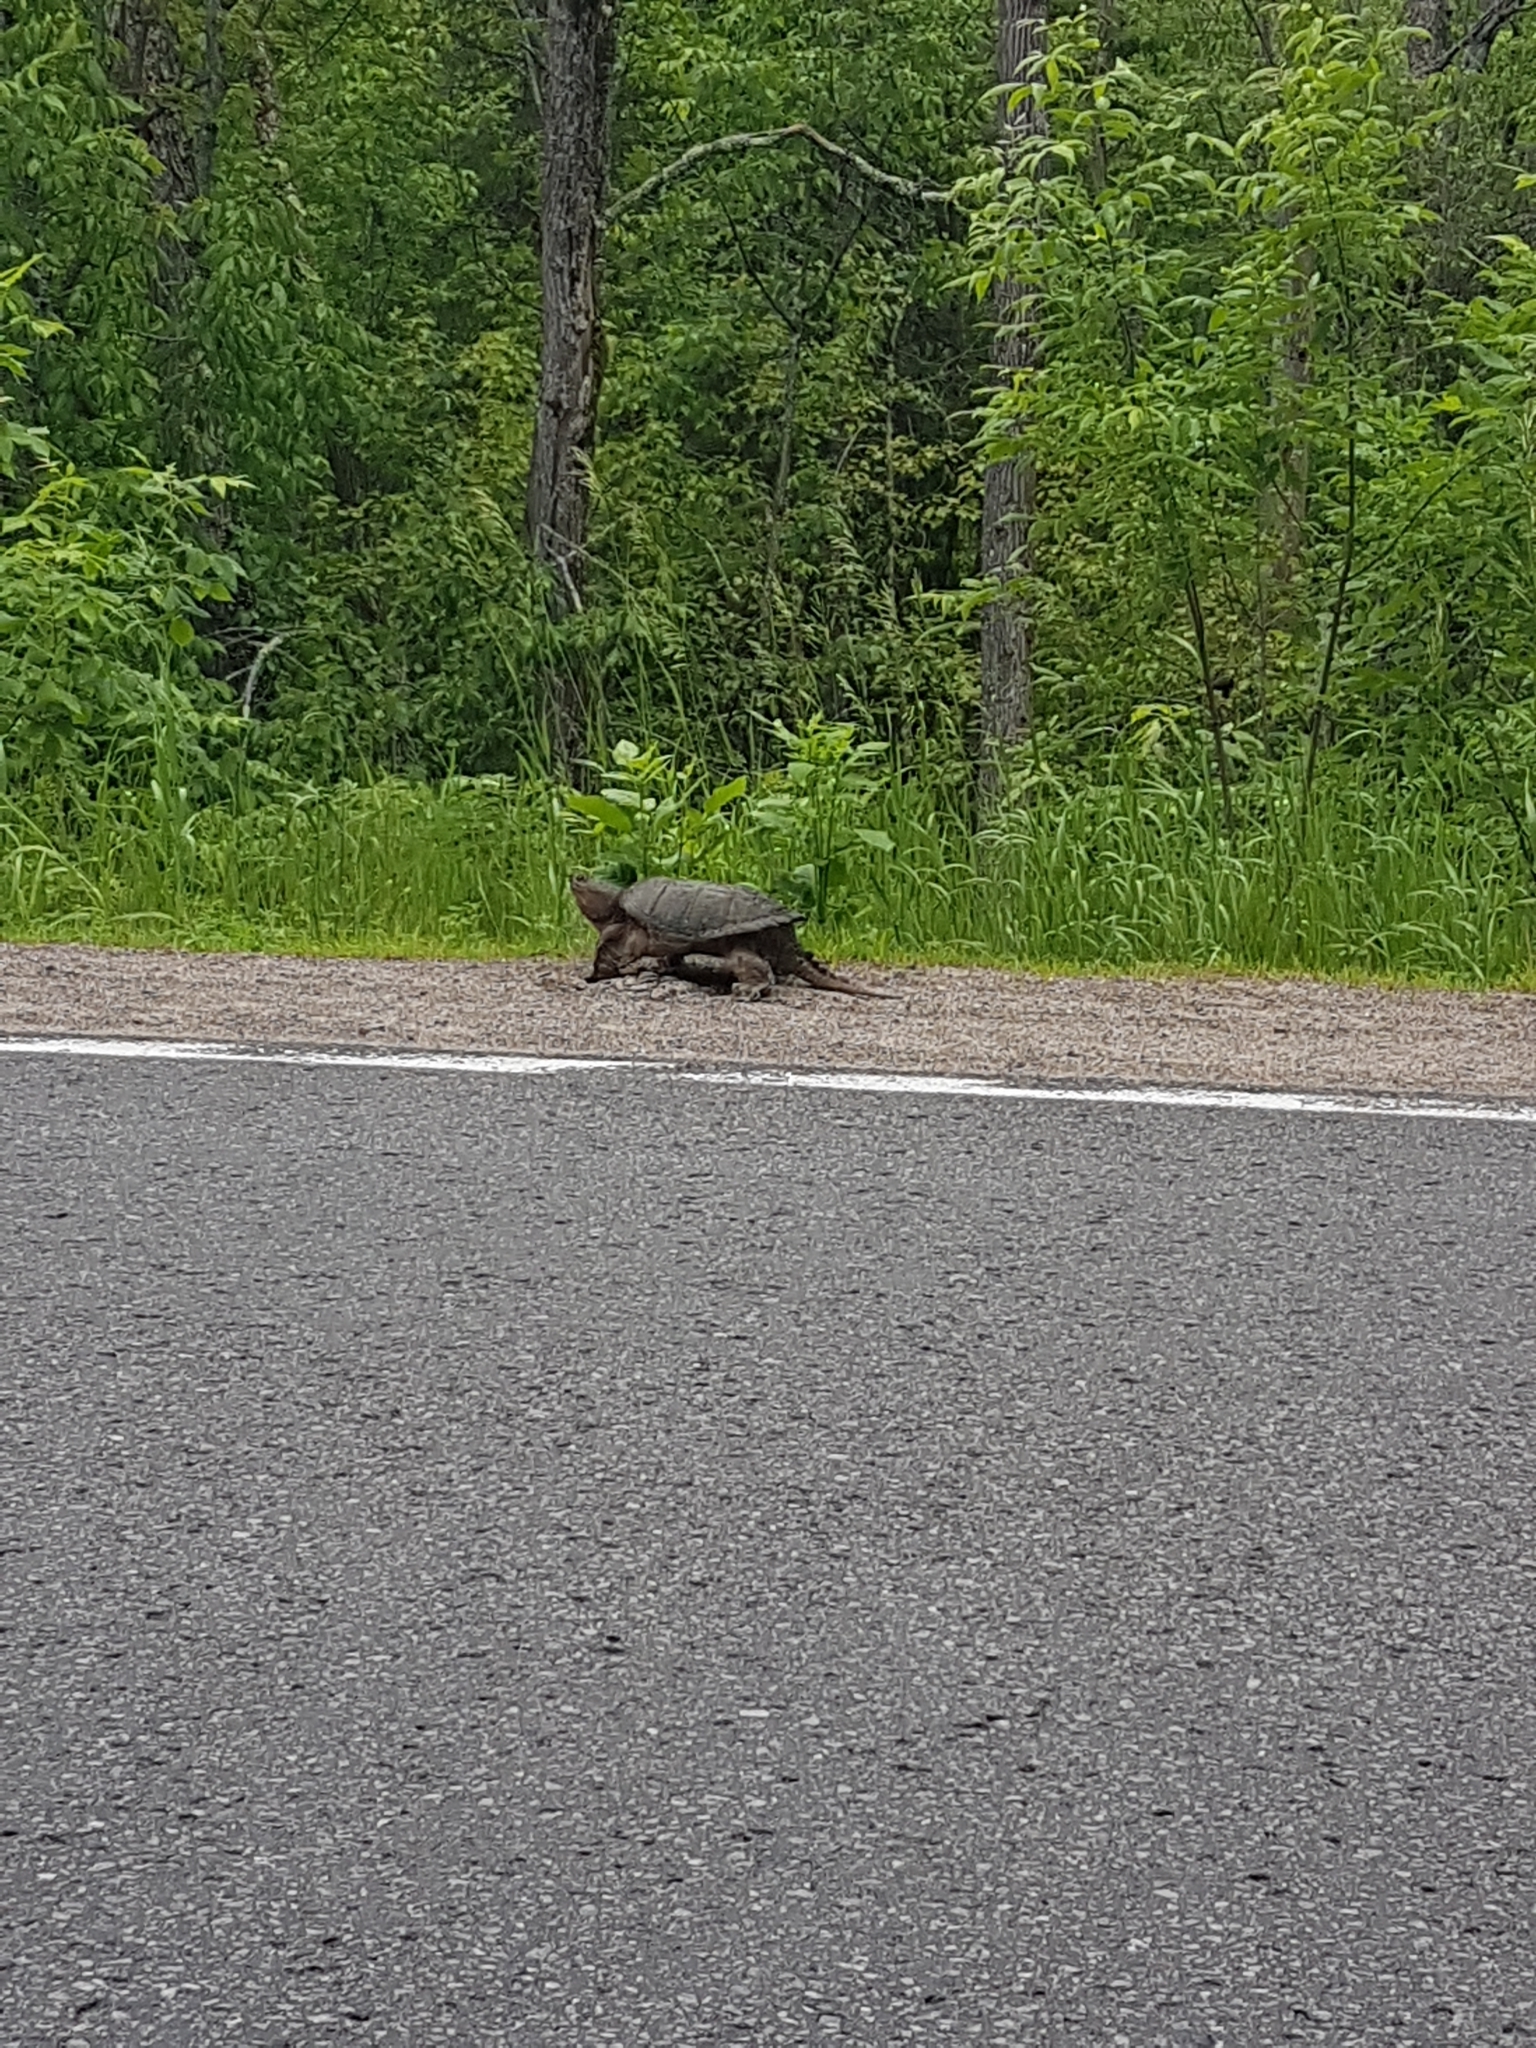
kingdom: Animalia
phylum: Chordata
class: Testudines
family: Chelydridae
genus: Chelydra
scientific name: Chelydra serpentina
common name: Common snapping turtle
